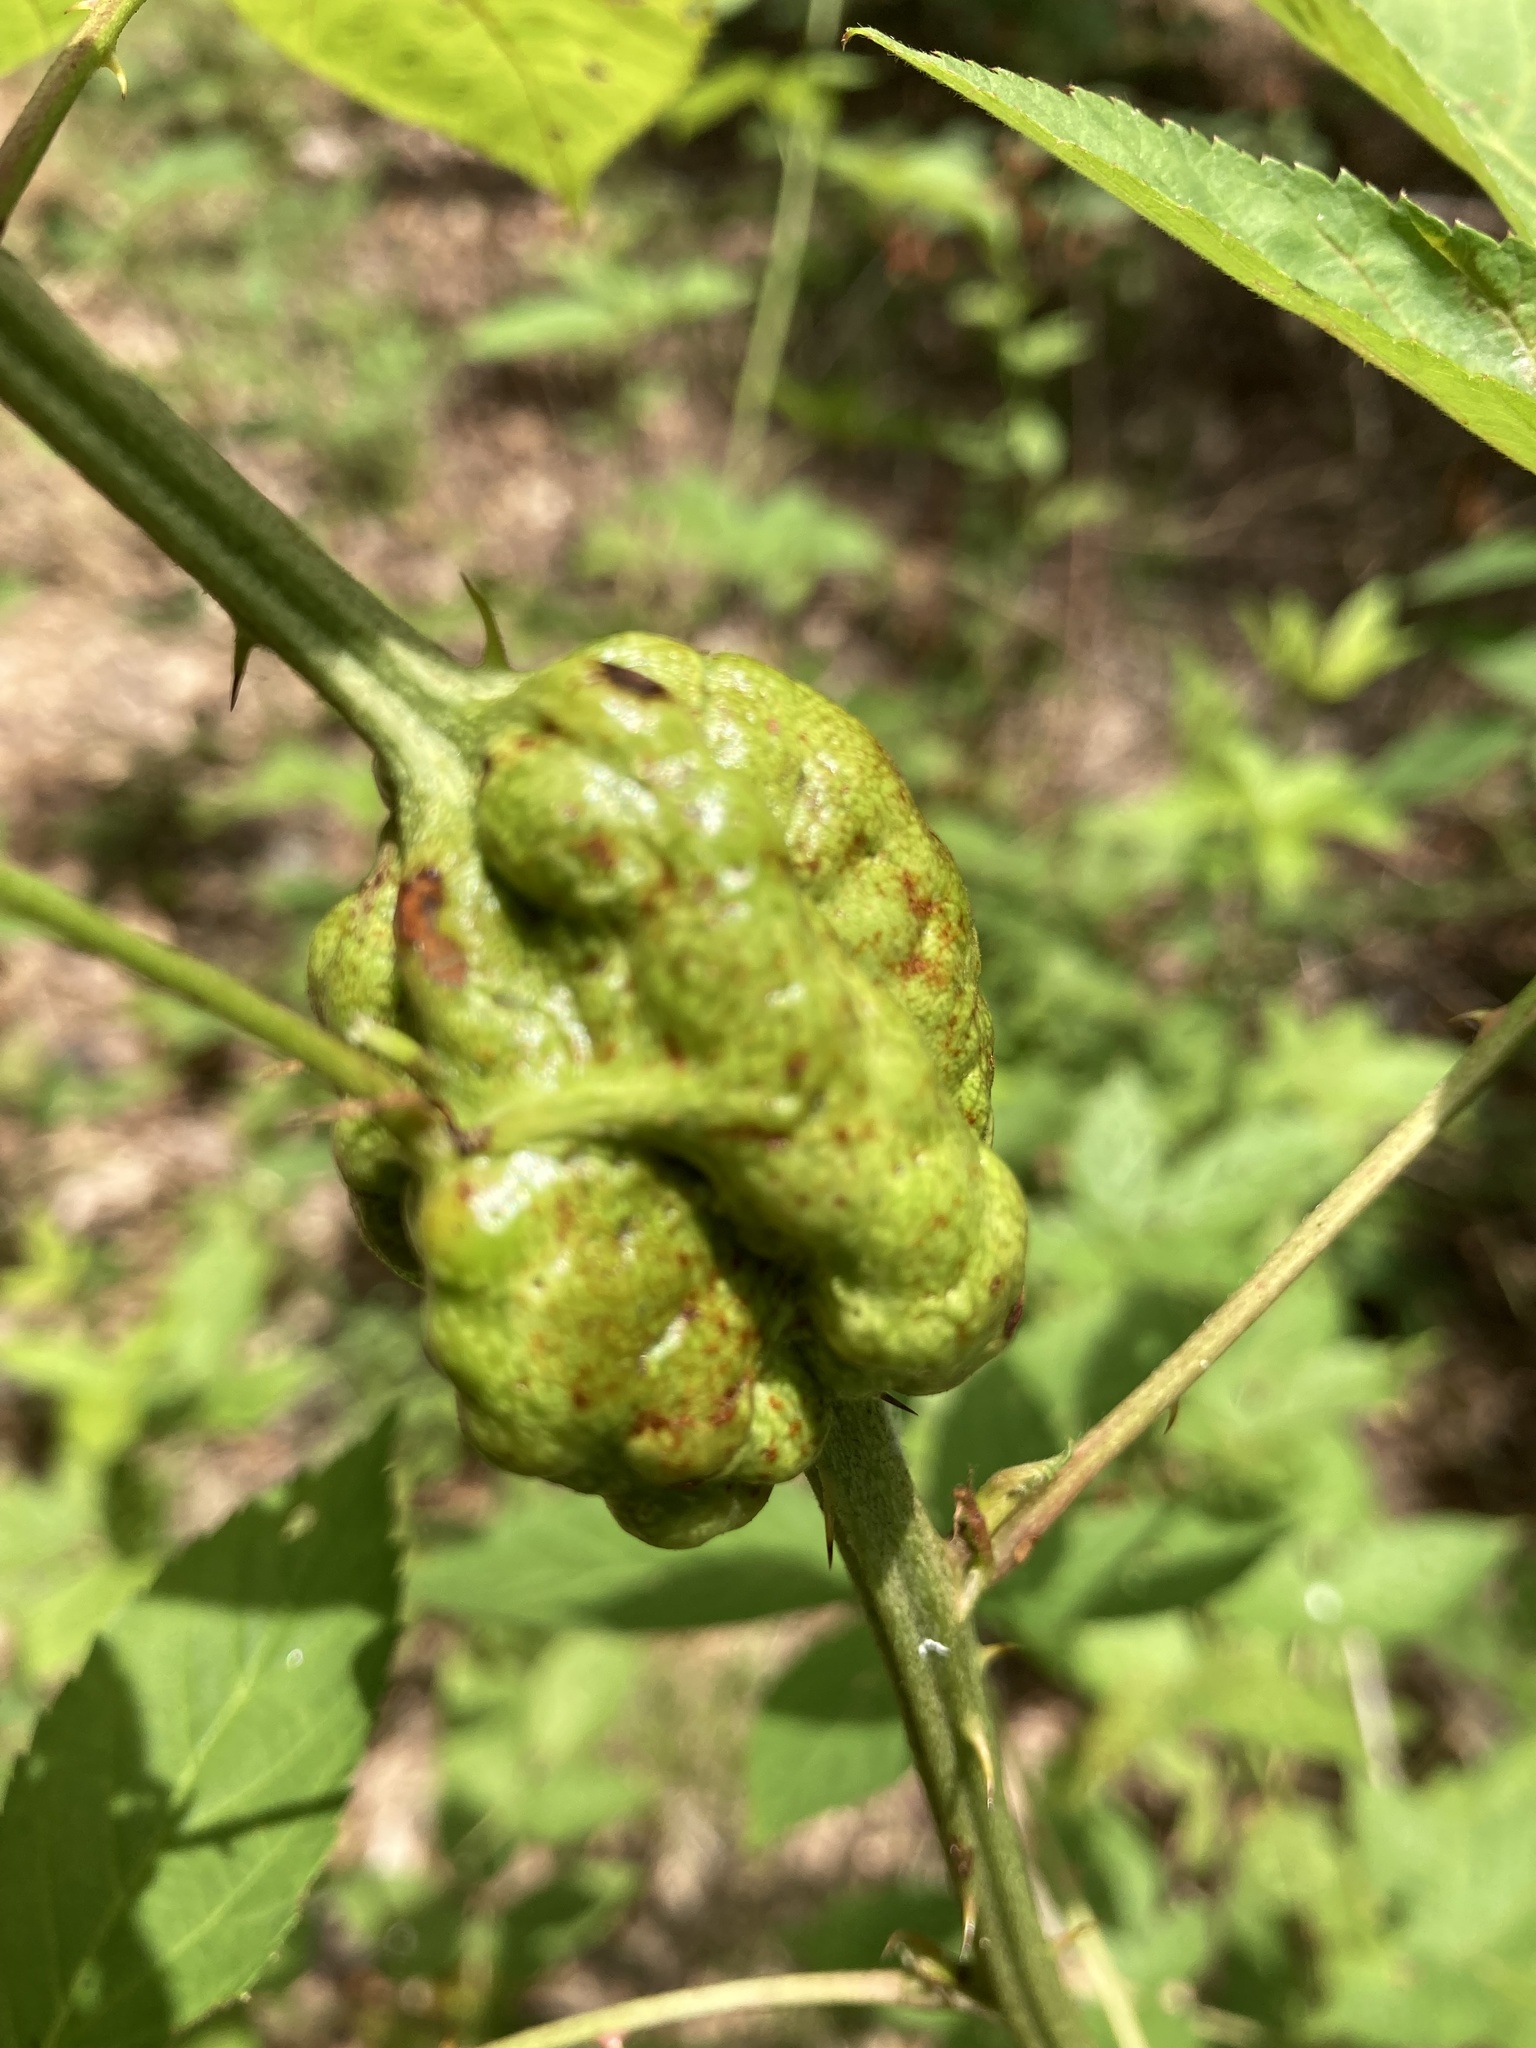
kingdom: Animalia
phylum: Arthropoda
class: Insecta
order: Hymenoptera
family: Cynipidae
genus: Diastrophus
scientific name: Diastrophus
